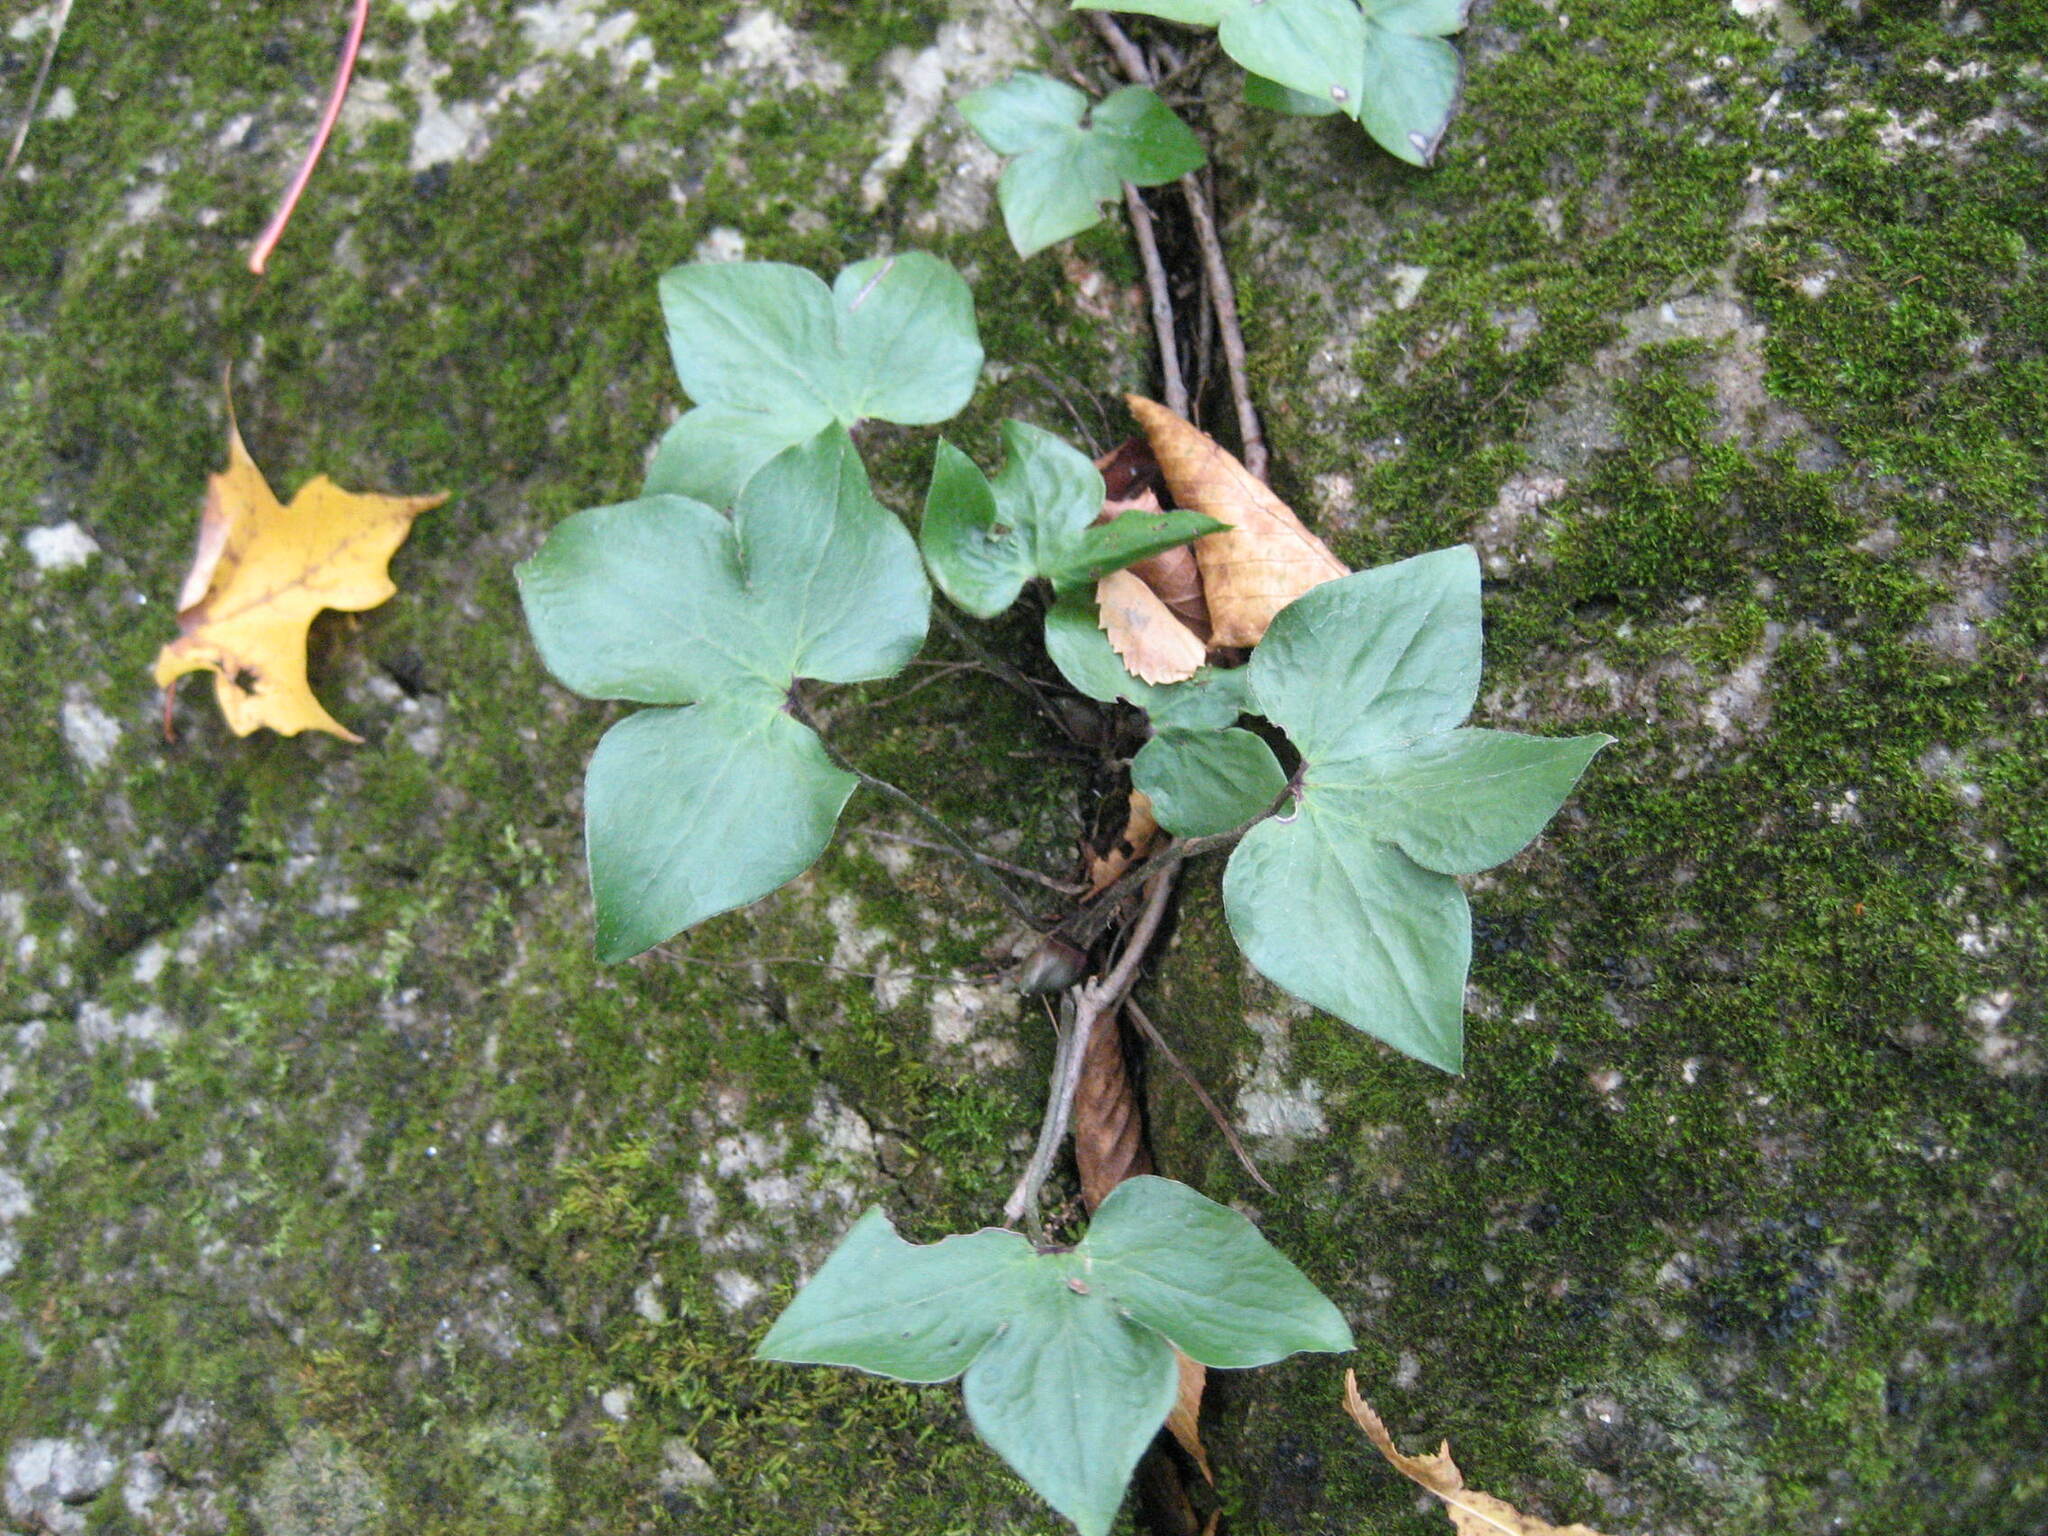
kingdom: Plantae
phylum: Tracheophyta
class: Magnoliopsida
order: Ranunculales
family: Ranunculaceae
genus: Hepatica
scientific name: Hepatica acutiloba
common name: Sharp-lobed hepatica
